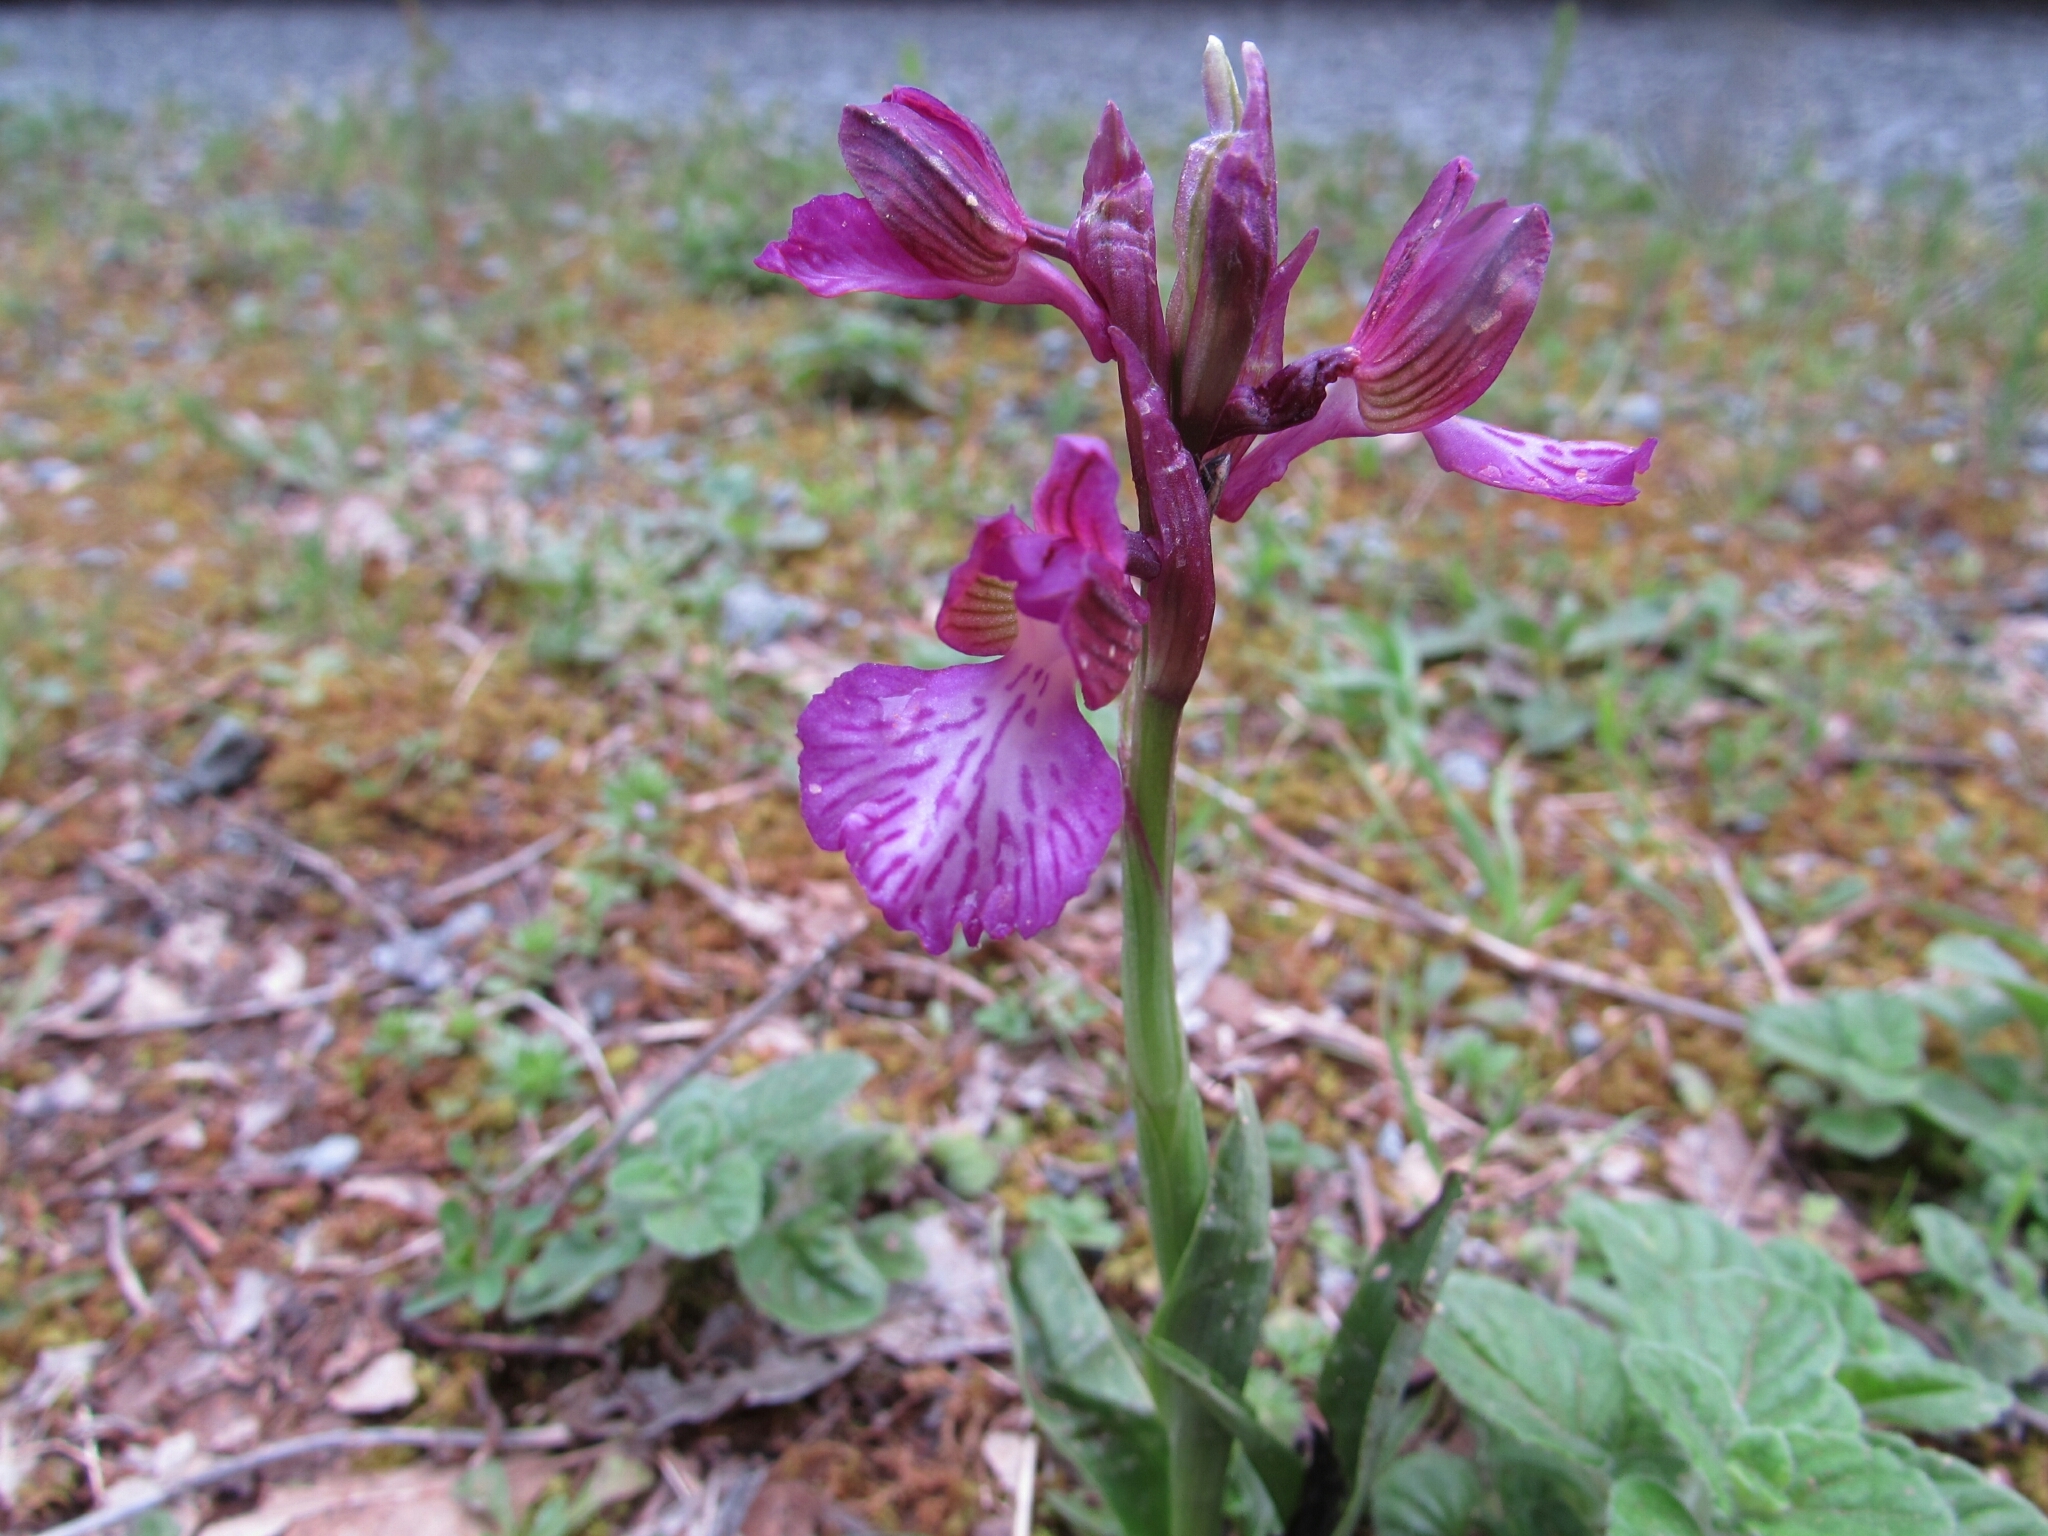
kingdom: Plantae
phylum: Tracheophyta
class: Liliopsida
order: Asparagales
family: Orchidaceae
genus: Anacamptis
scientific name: Anacamptis gennarii
